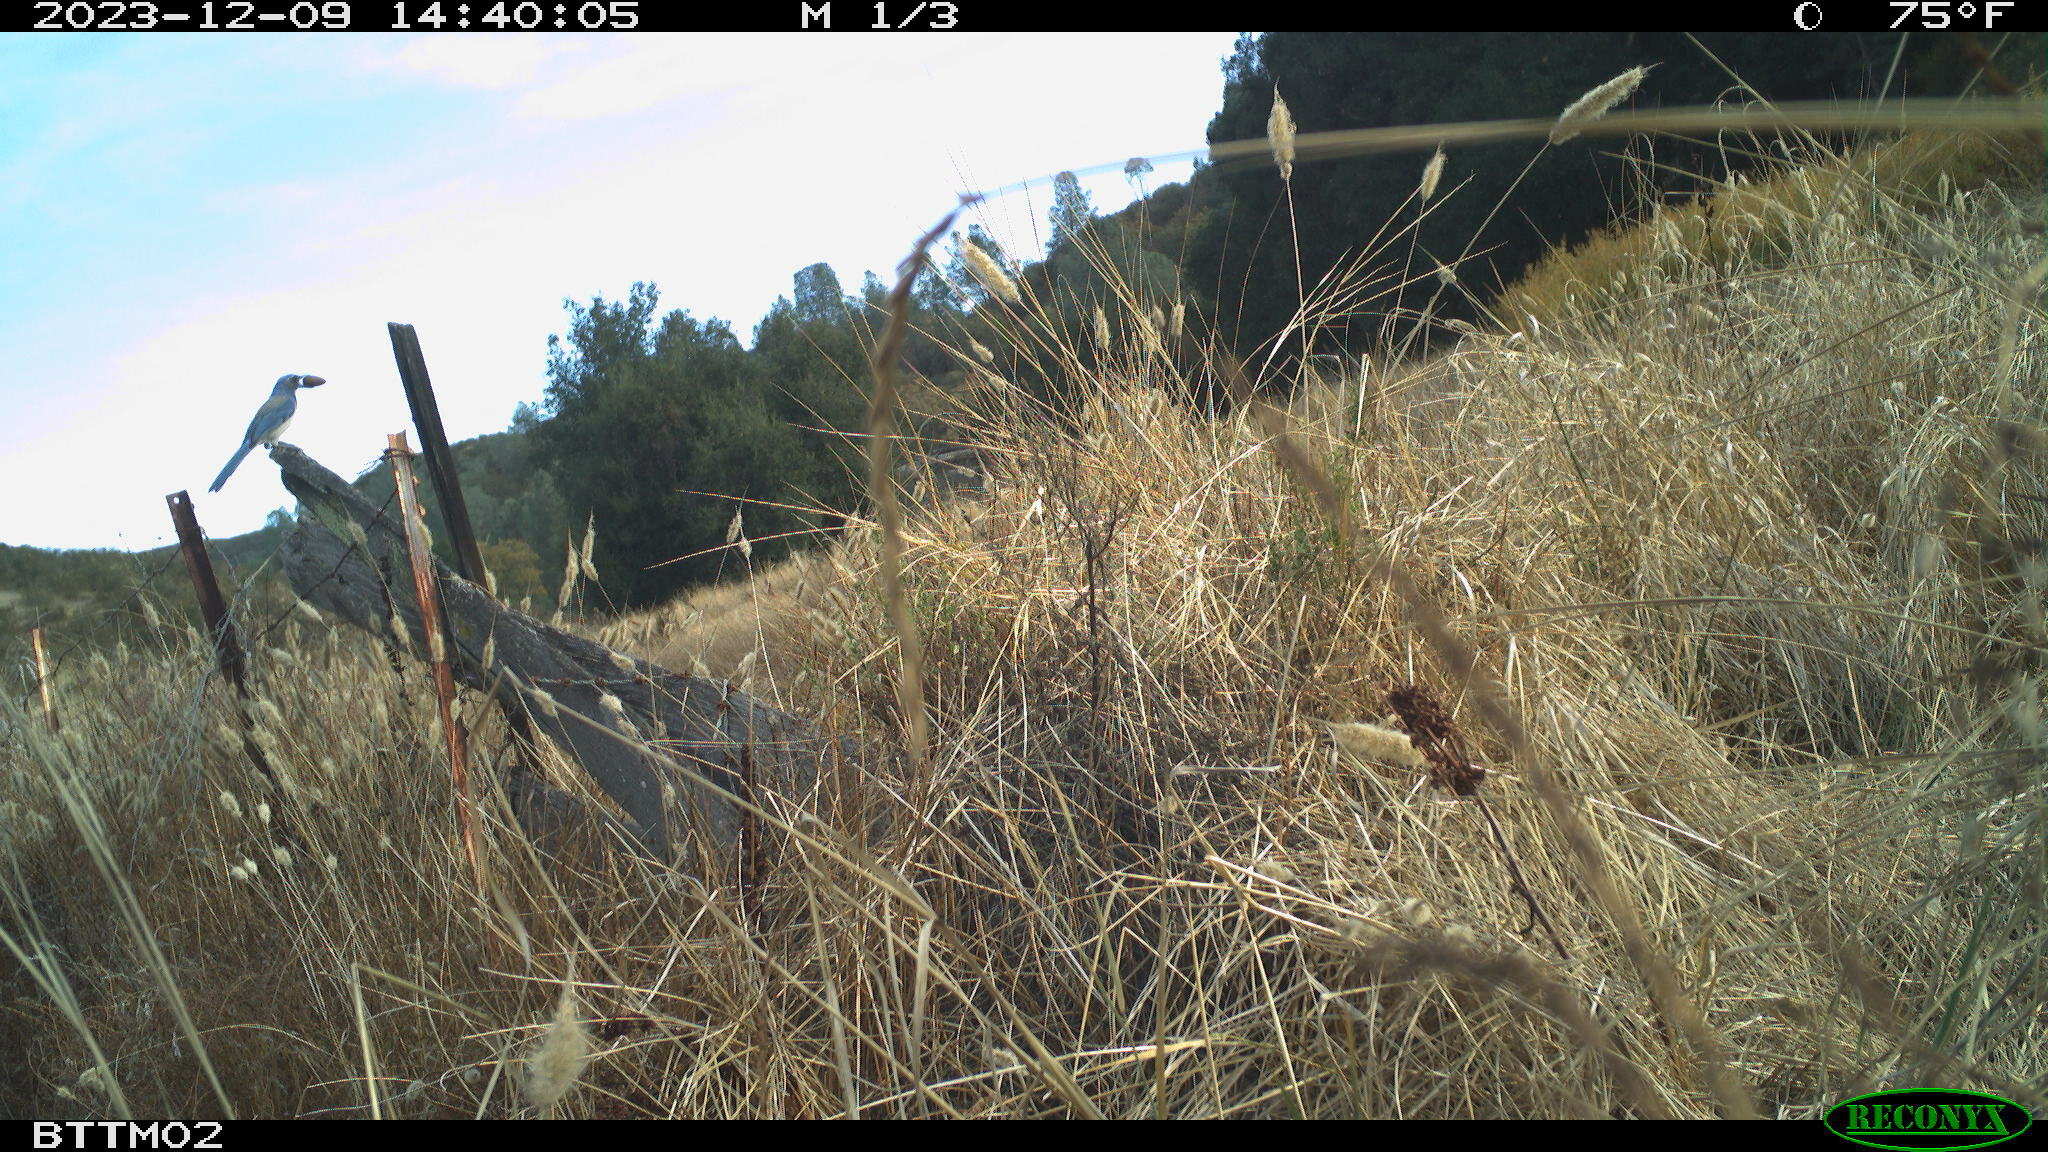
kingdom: Animalia
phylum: Chordata
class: Aves
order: Passeriformes
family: Corvidae
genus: Aphelocoma
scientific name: Aphelocoma californica
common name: California scrub-jay
